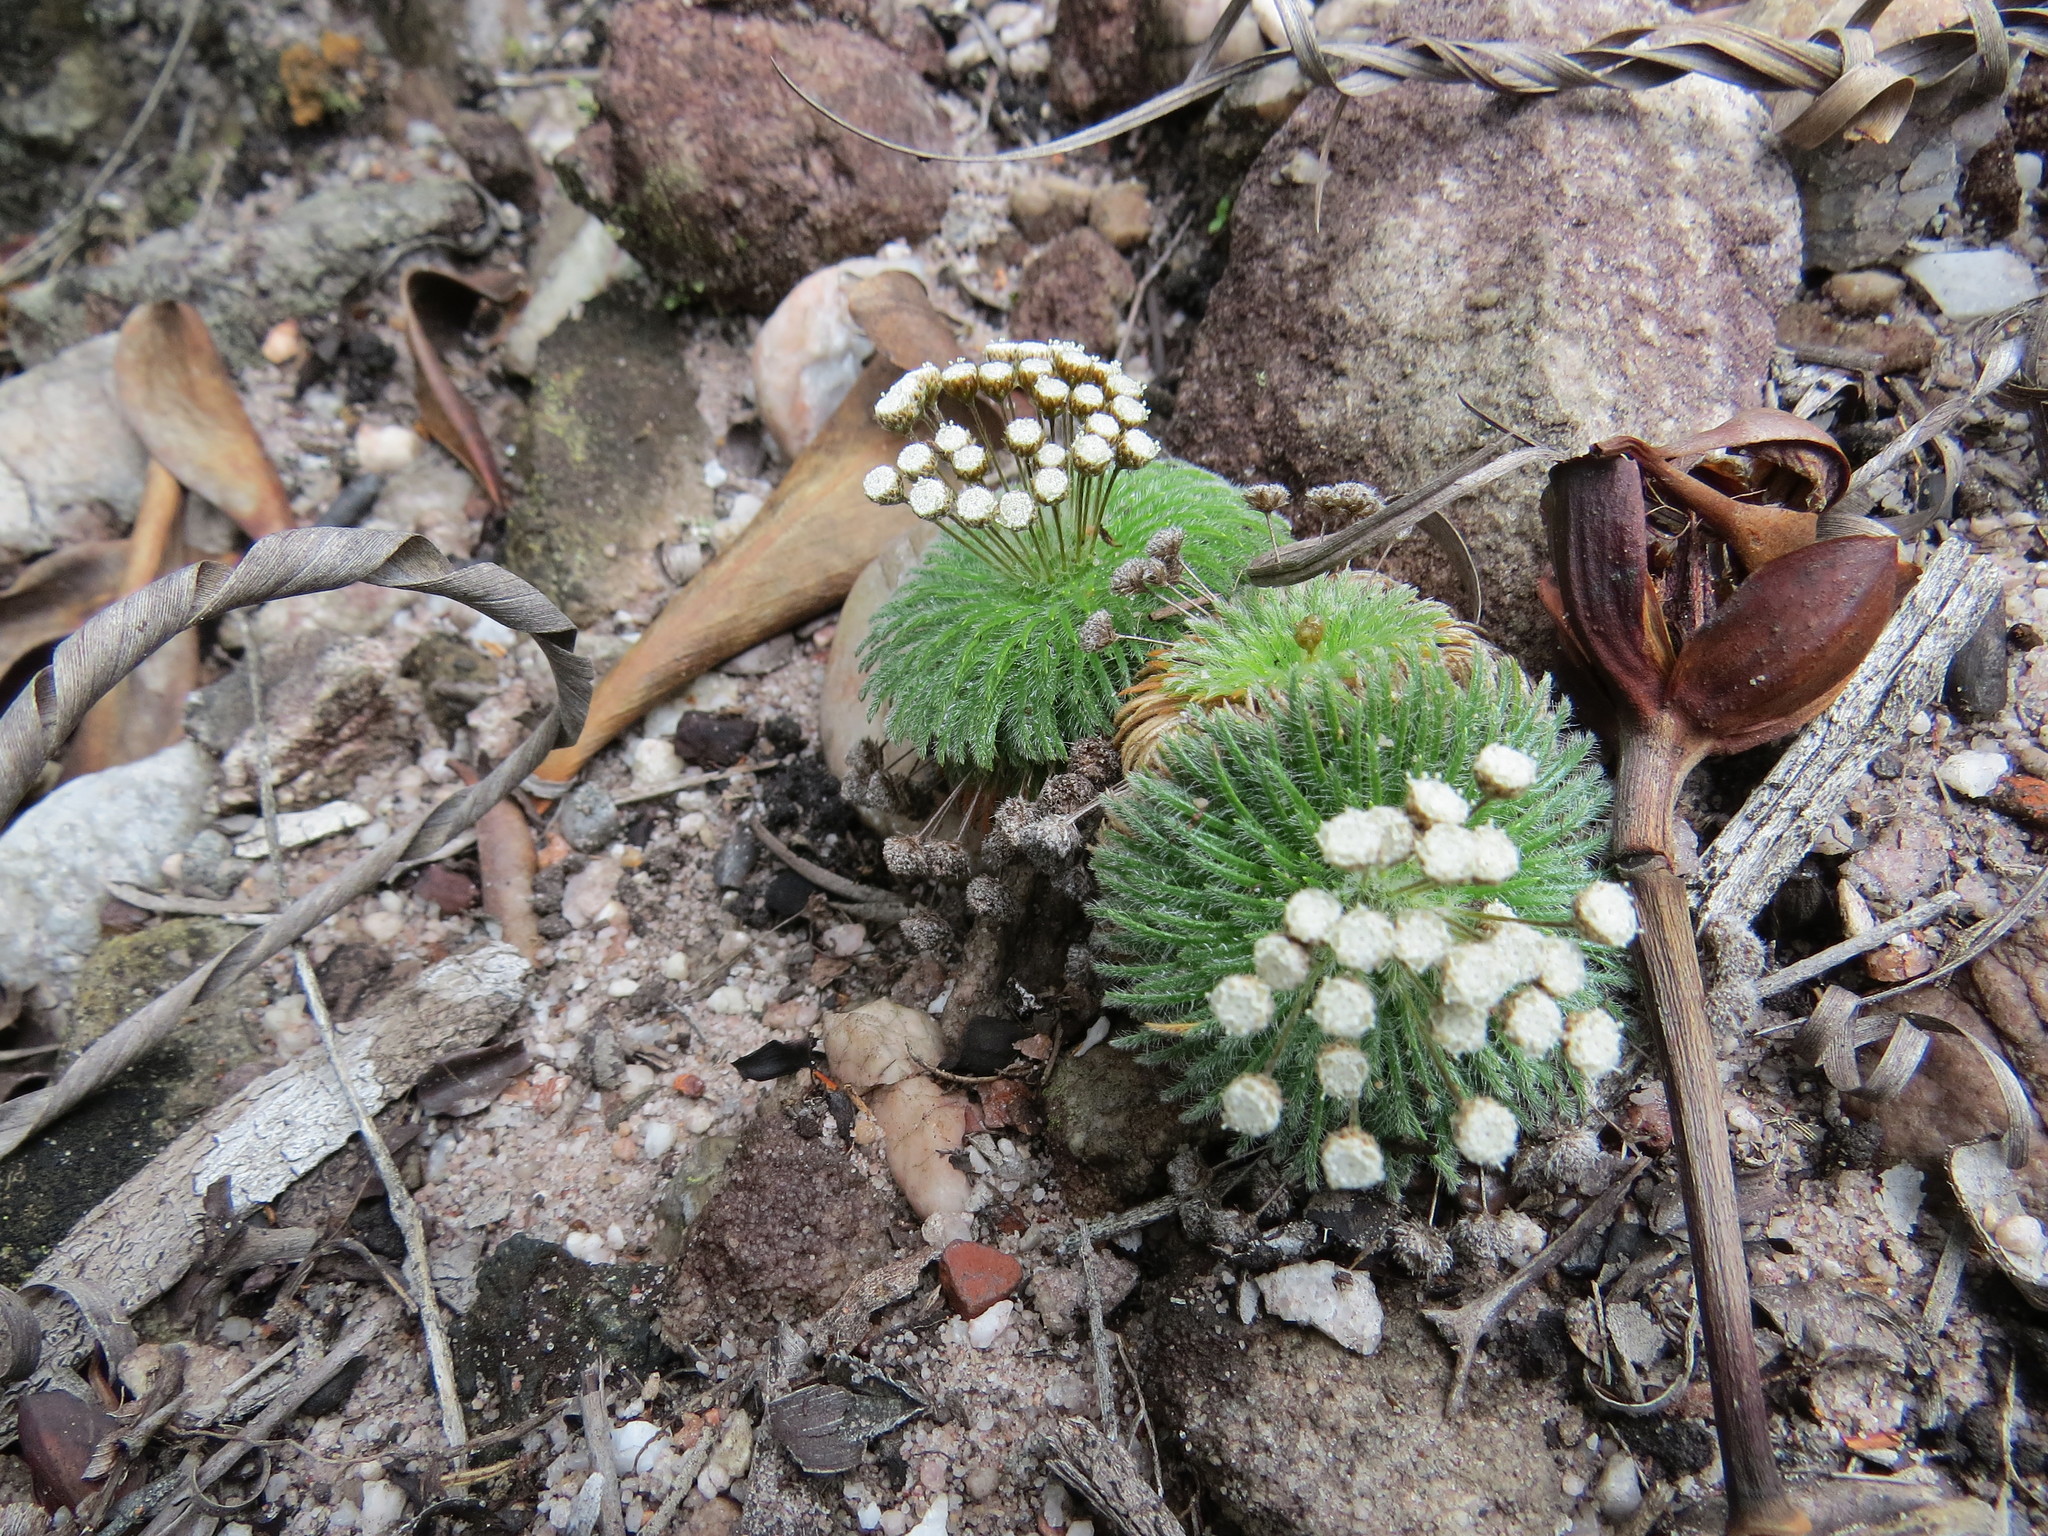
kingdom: Plantae
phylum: Tracheophyta
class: Liliopsida
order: Poales
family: Eriocaulaceae
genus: Paepalanthus
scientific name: Paepalanthus pulvinatus
